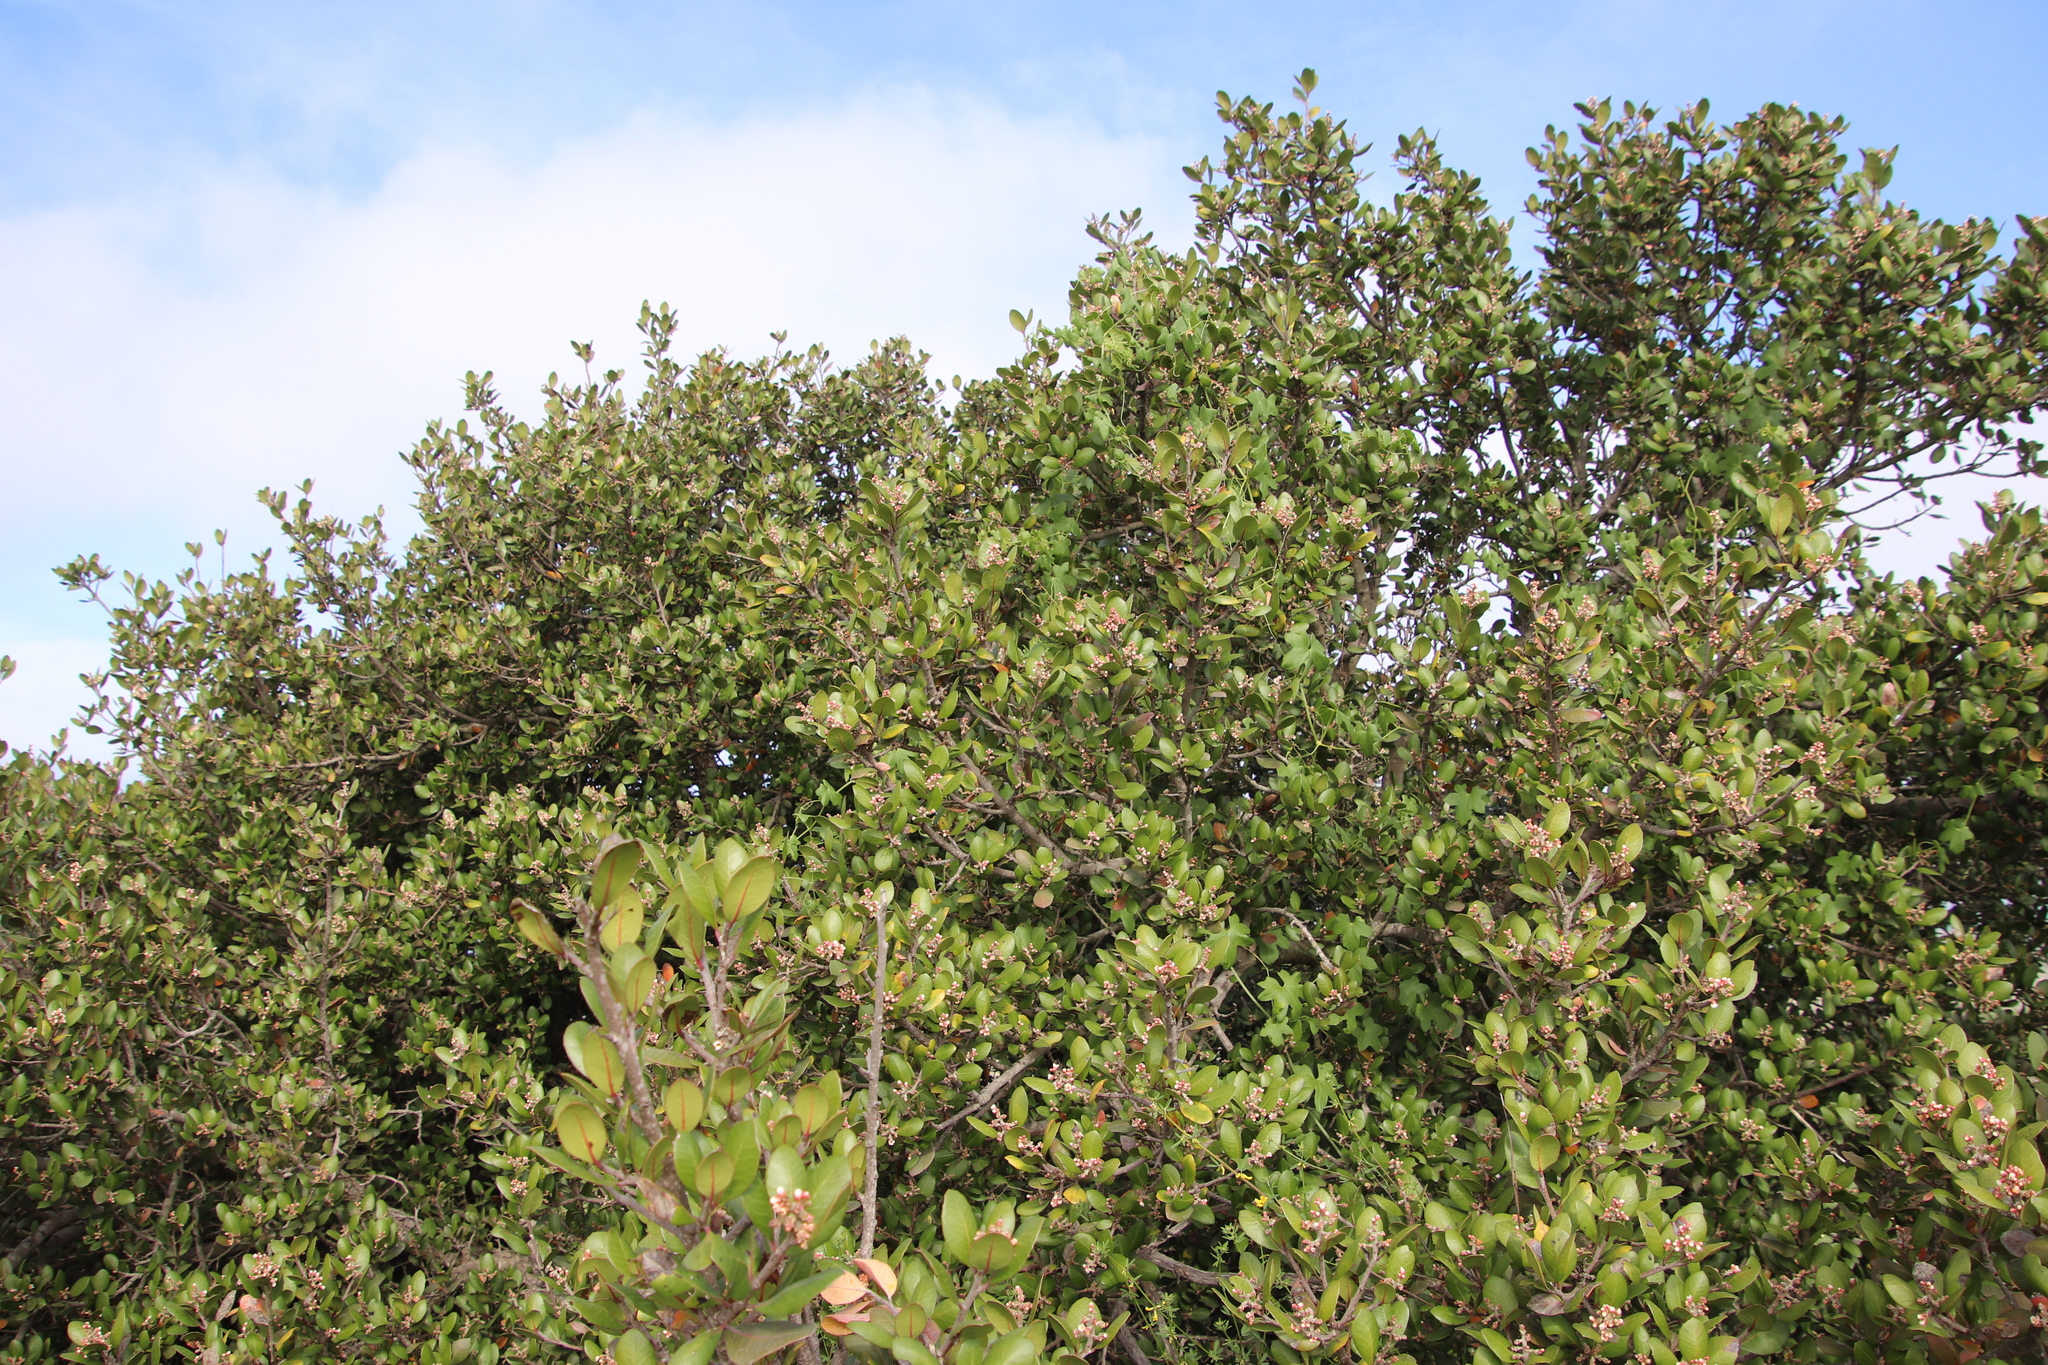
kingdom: Plantae
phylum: Tracheophyta
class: Magnoliopsida
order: Sapindales
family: Anacardiaceae
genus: Rhus
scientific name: Rhus integrifolia
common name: Lemonade sumac
